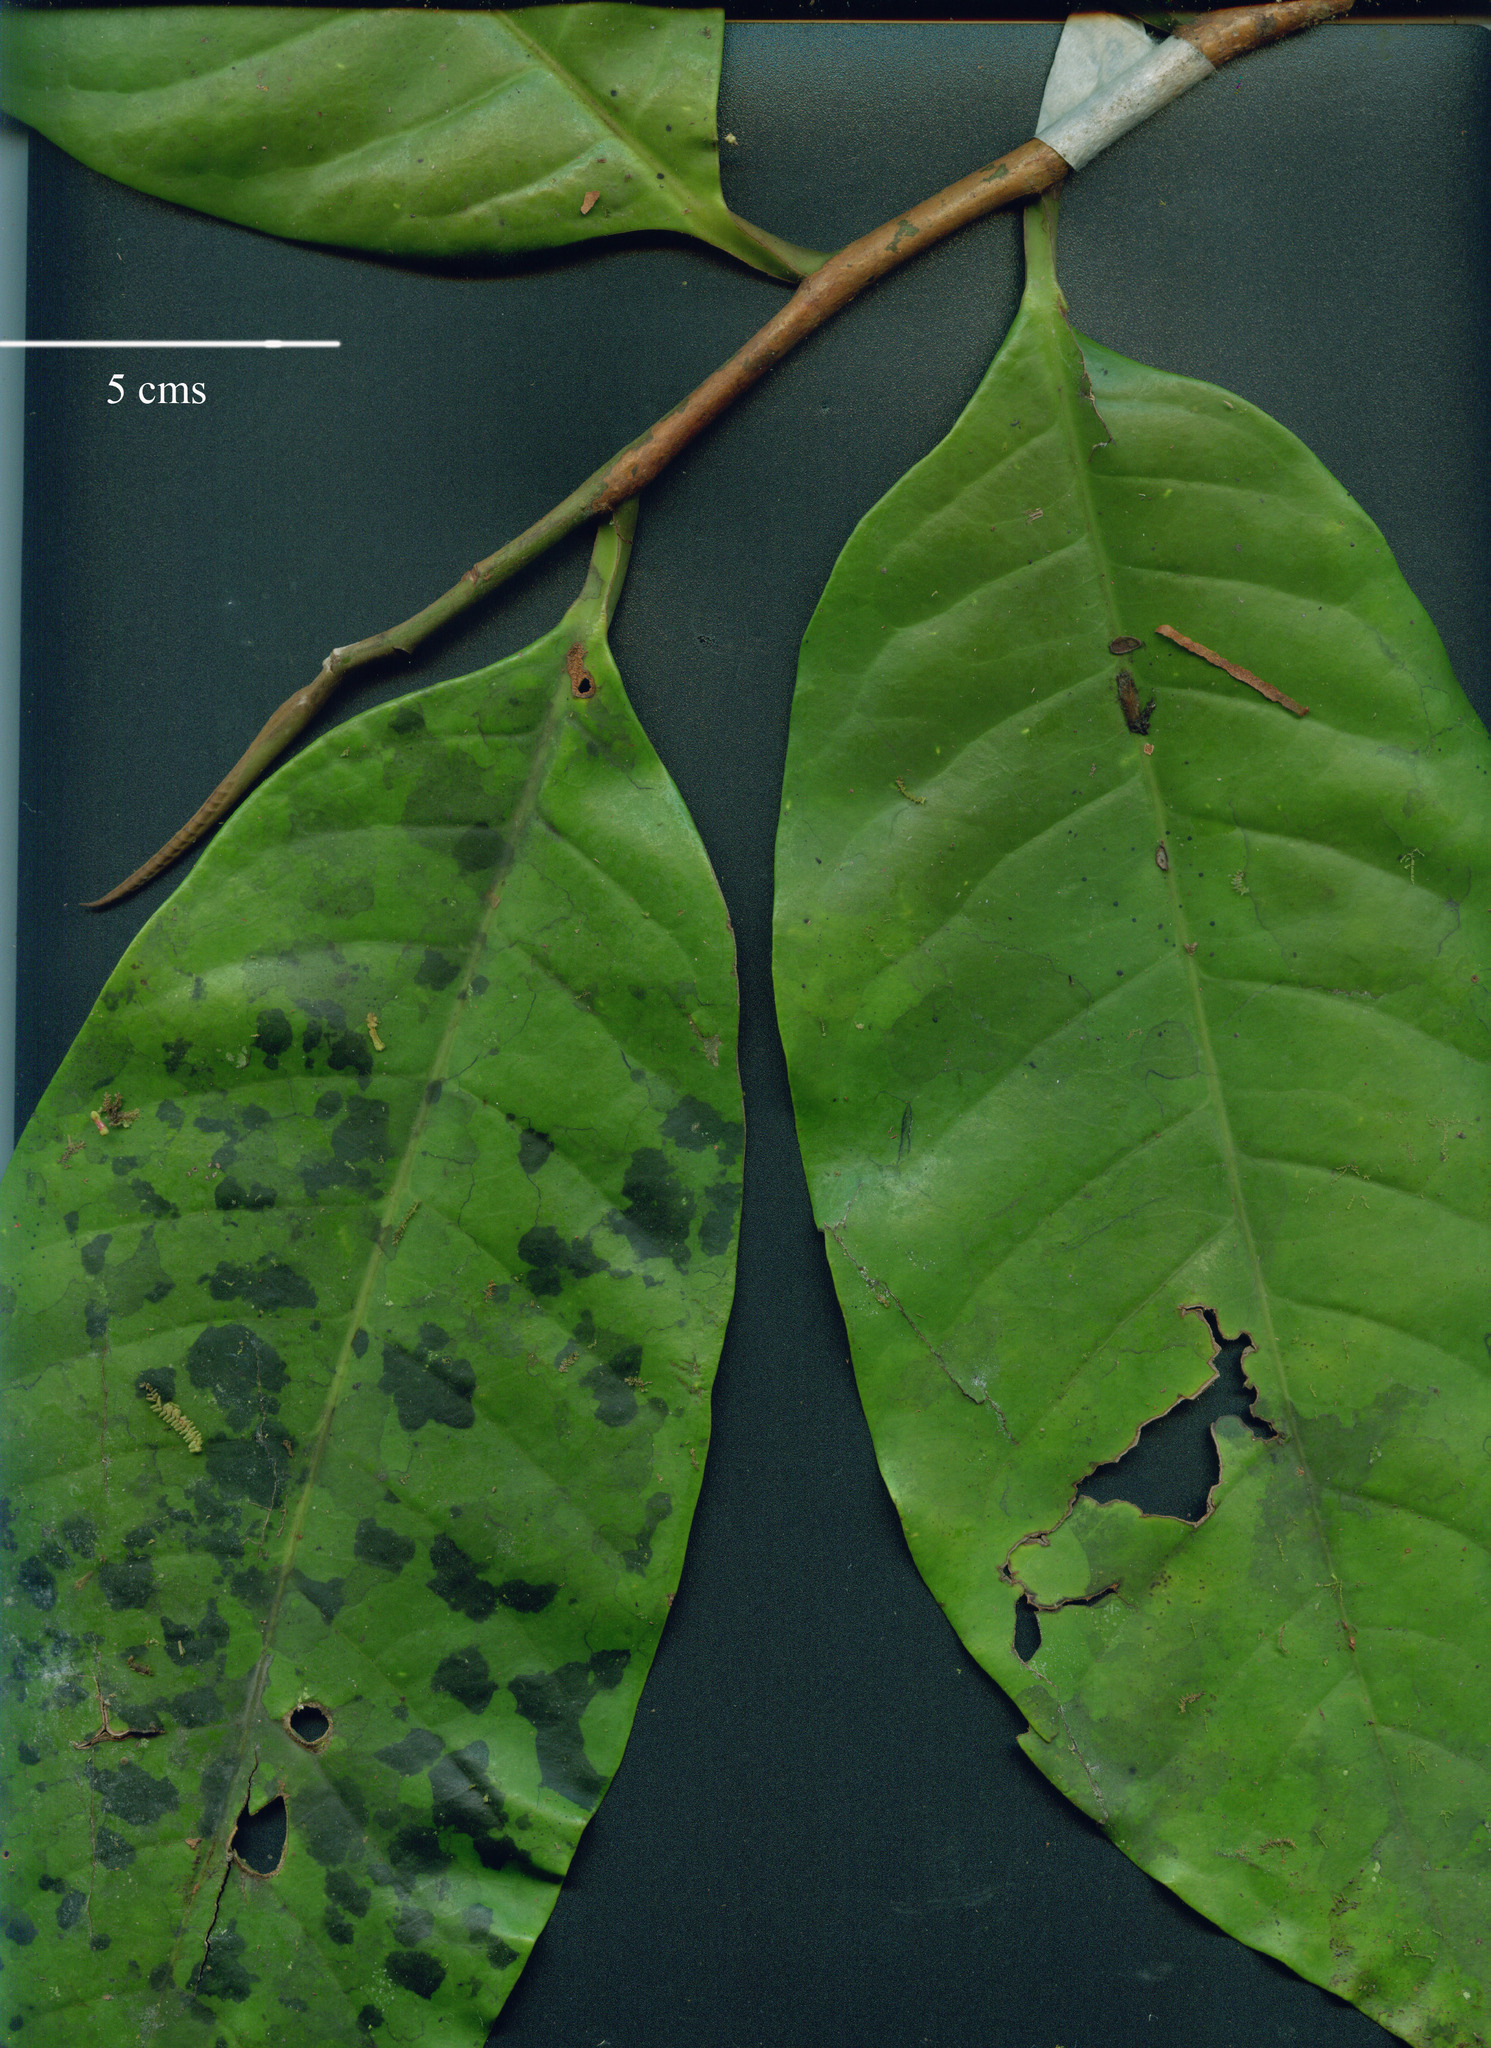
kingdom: Plantae
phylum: Tracheophyta
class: Magnoliopsida
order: Magnoliales
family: Myristicaceae
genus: Otoba
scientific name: Otoba novogranatensis
